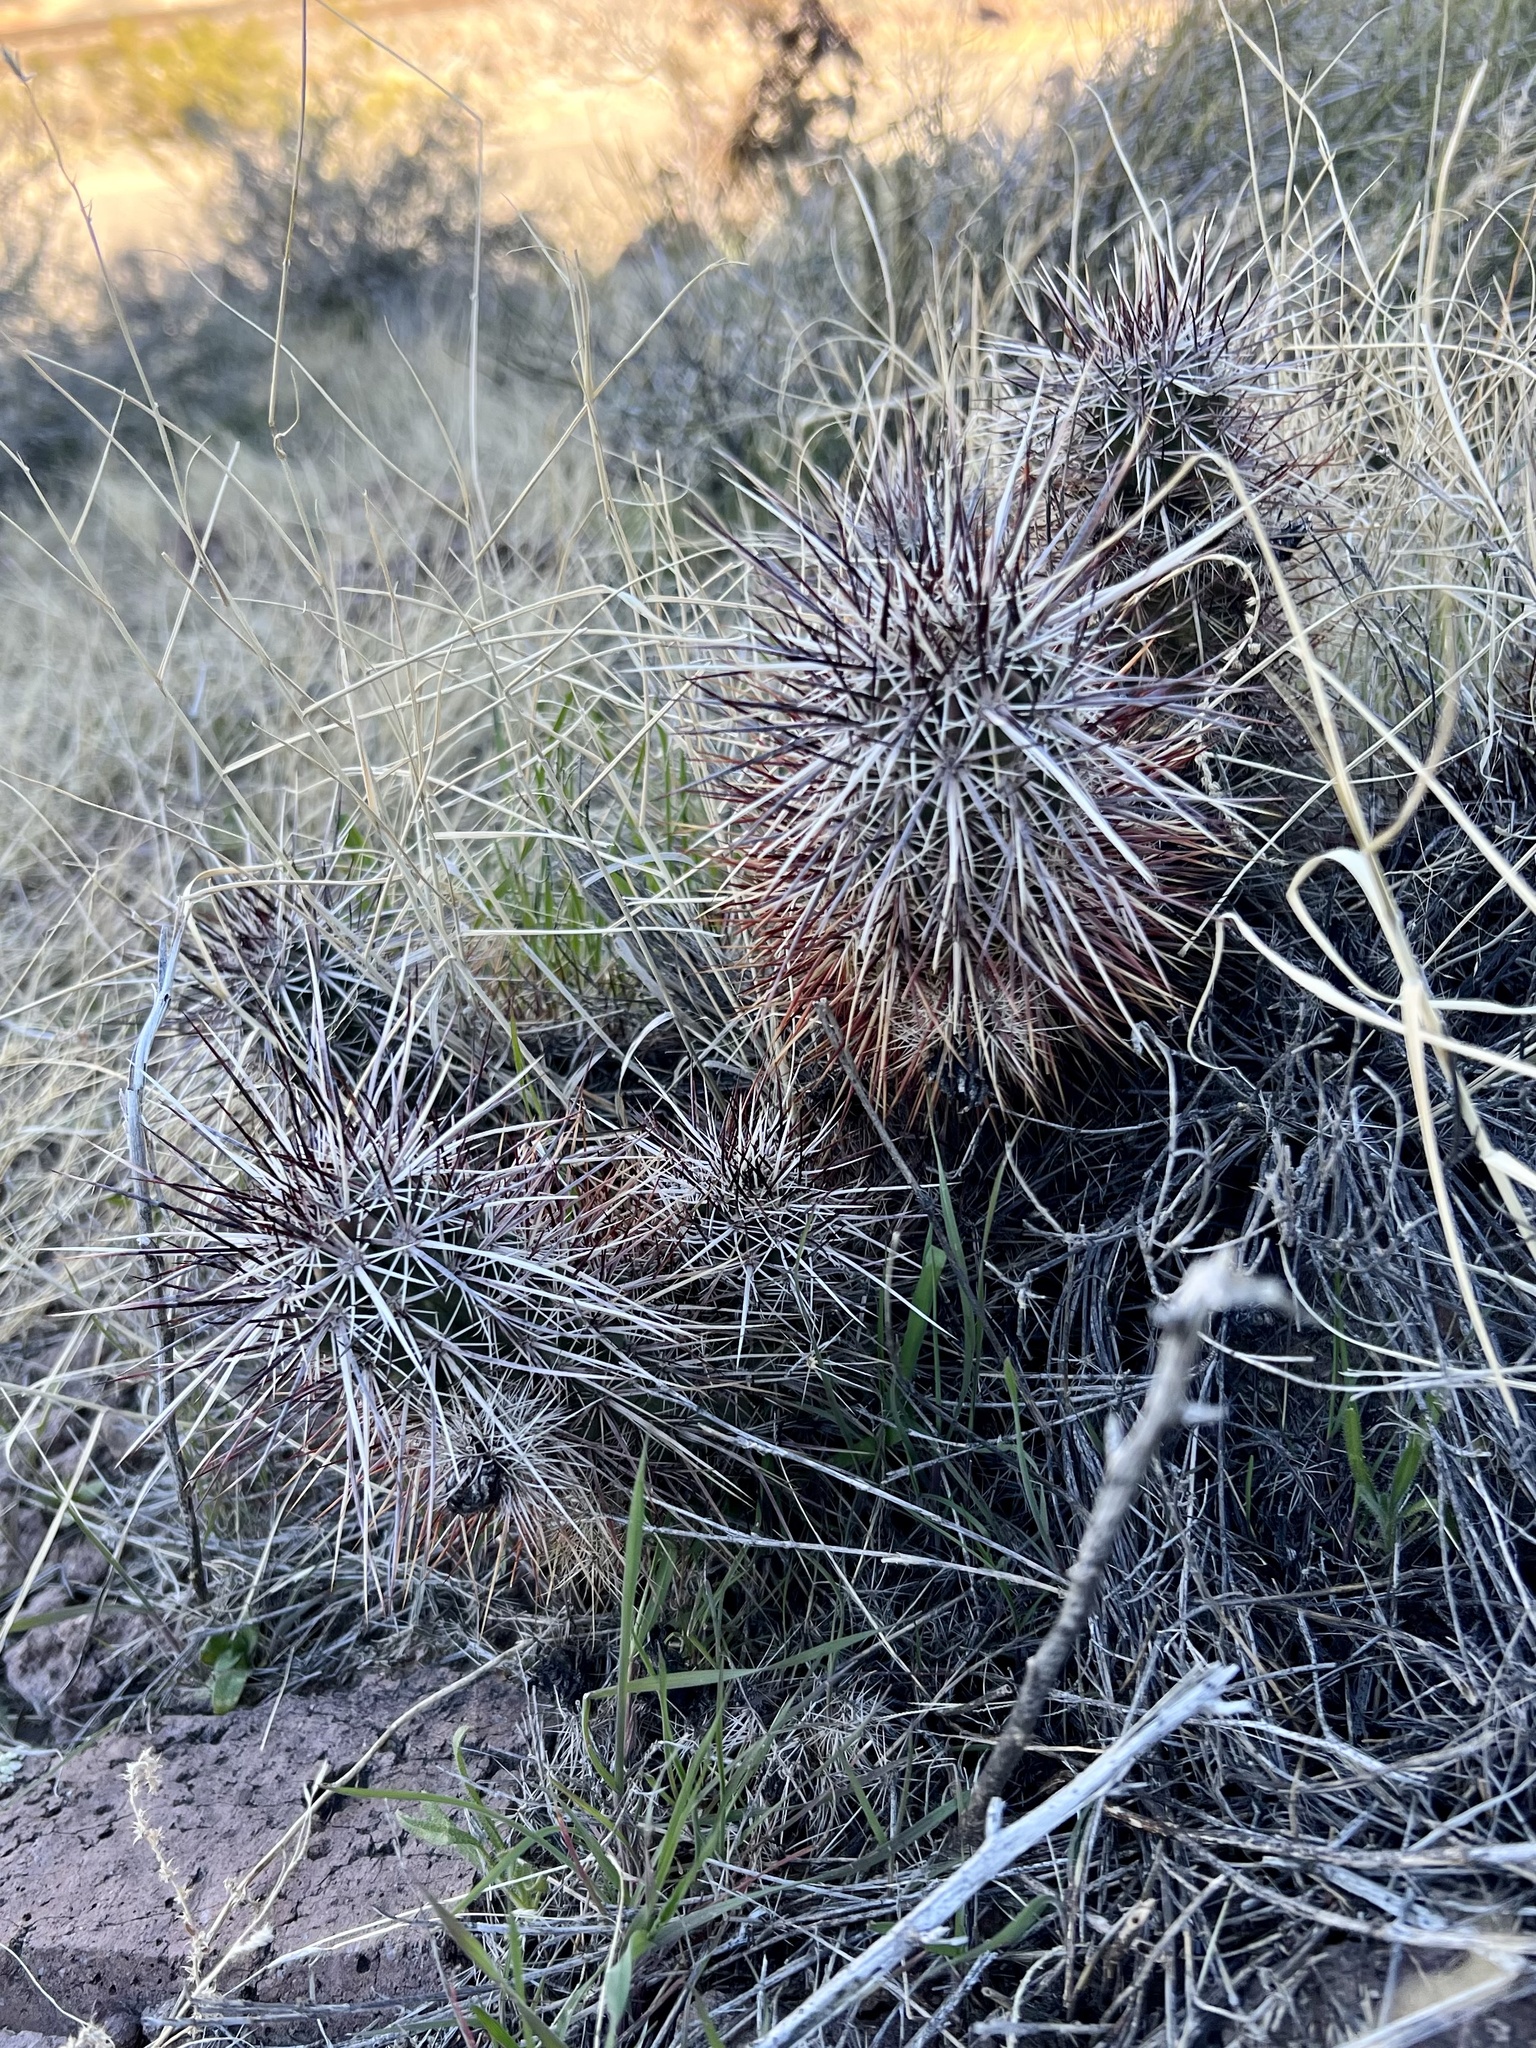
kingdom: Plantae
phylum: Tracheophyta
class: Magnoliopsida
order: Caryophyllales
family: Cactaceae
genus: Echinocereus
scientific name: Echinocereus engelmannii
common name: Engelmann's hedgehog cactus
